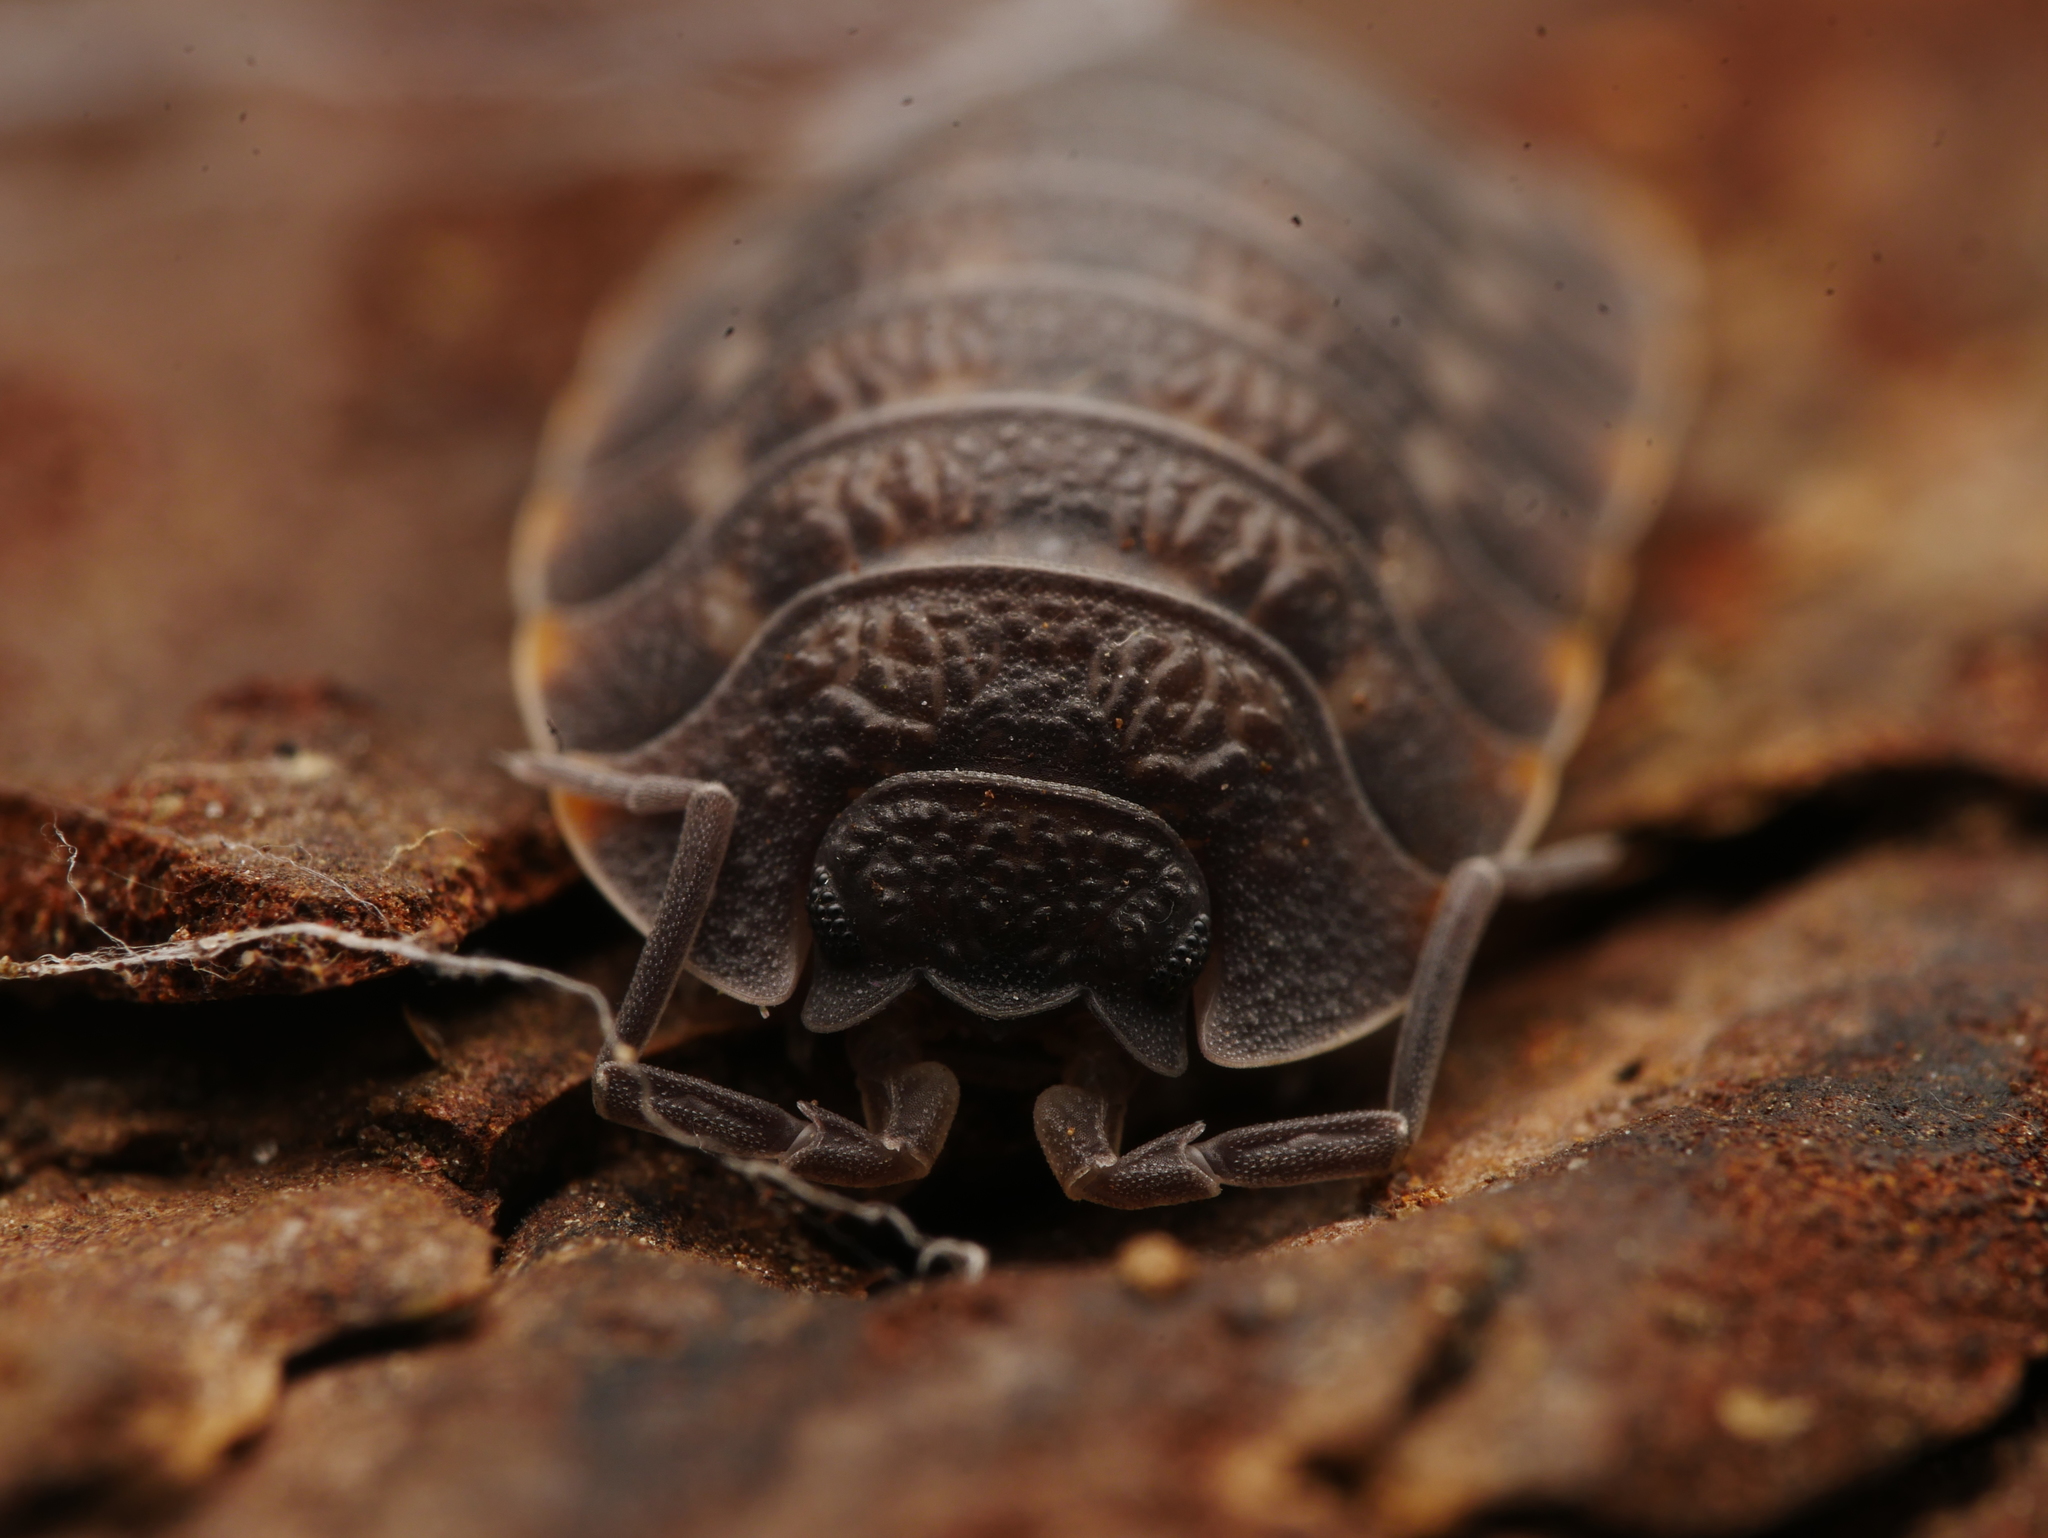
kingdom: Animalia
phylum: Arthropoda
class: Malacostraca
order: Isopoda
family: Trachelipodidae
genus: Trachelipus
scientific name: Trachelipus ratzeburgii
